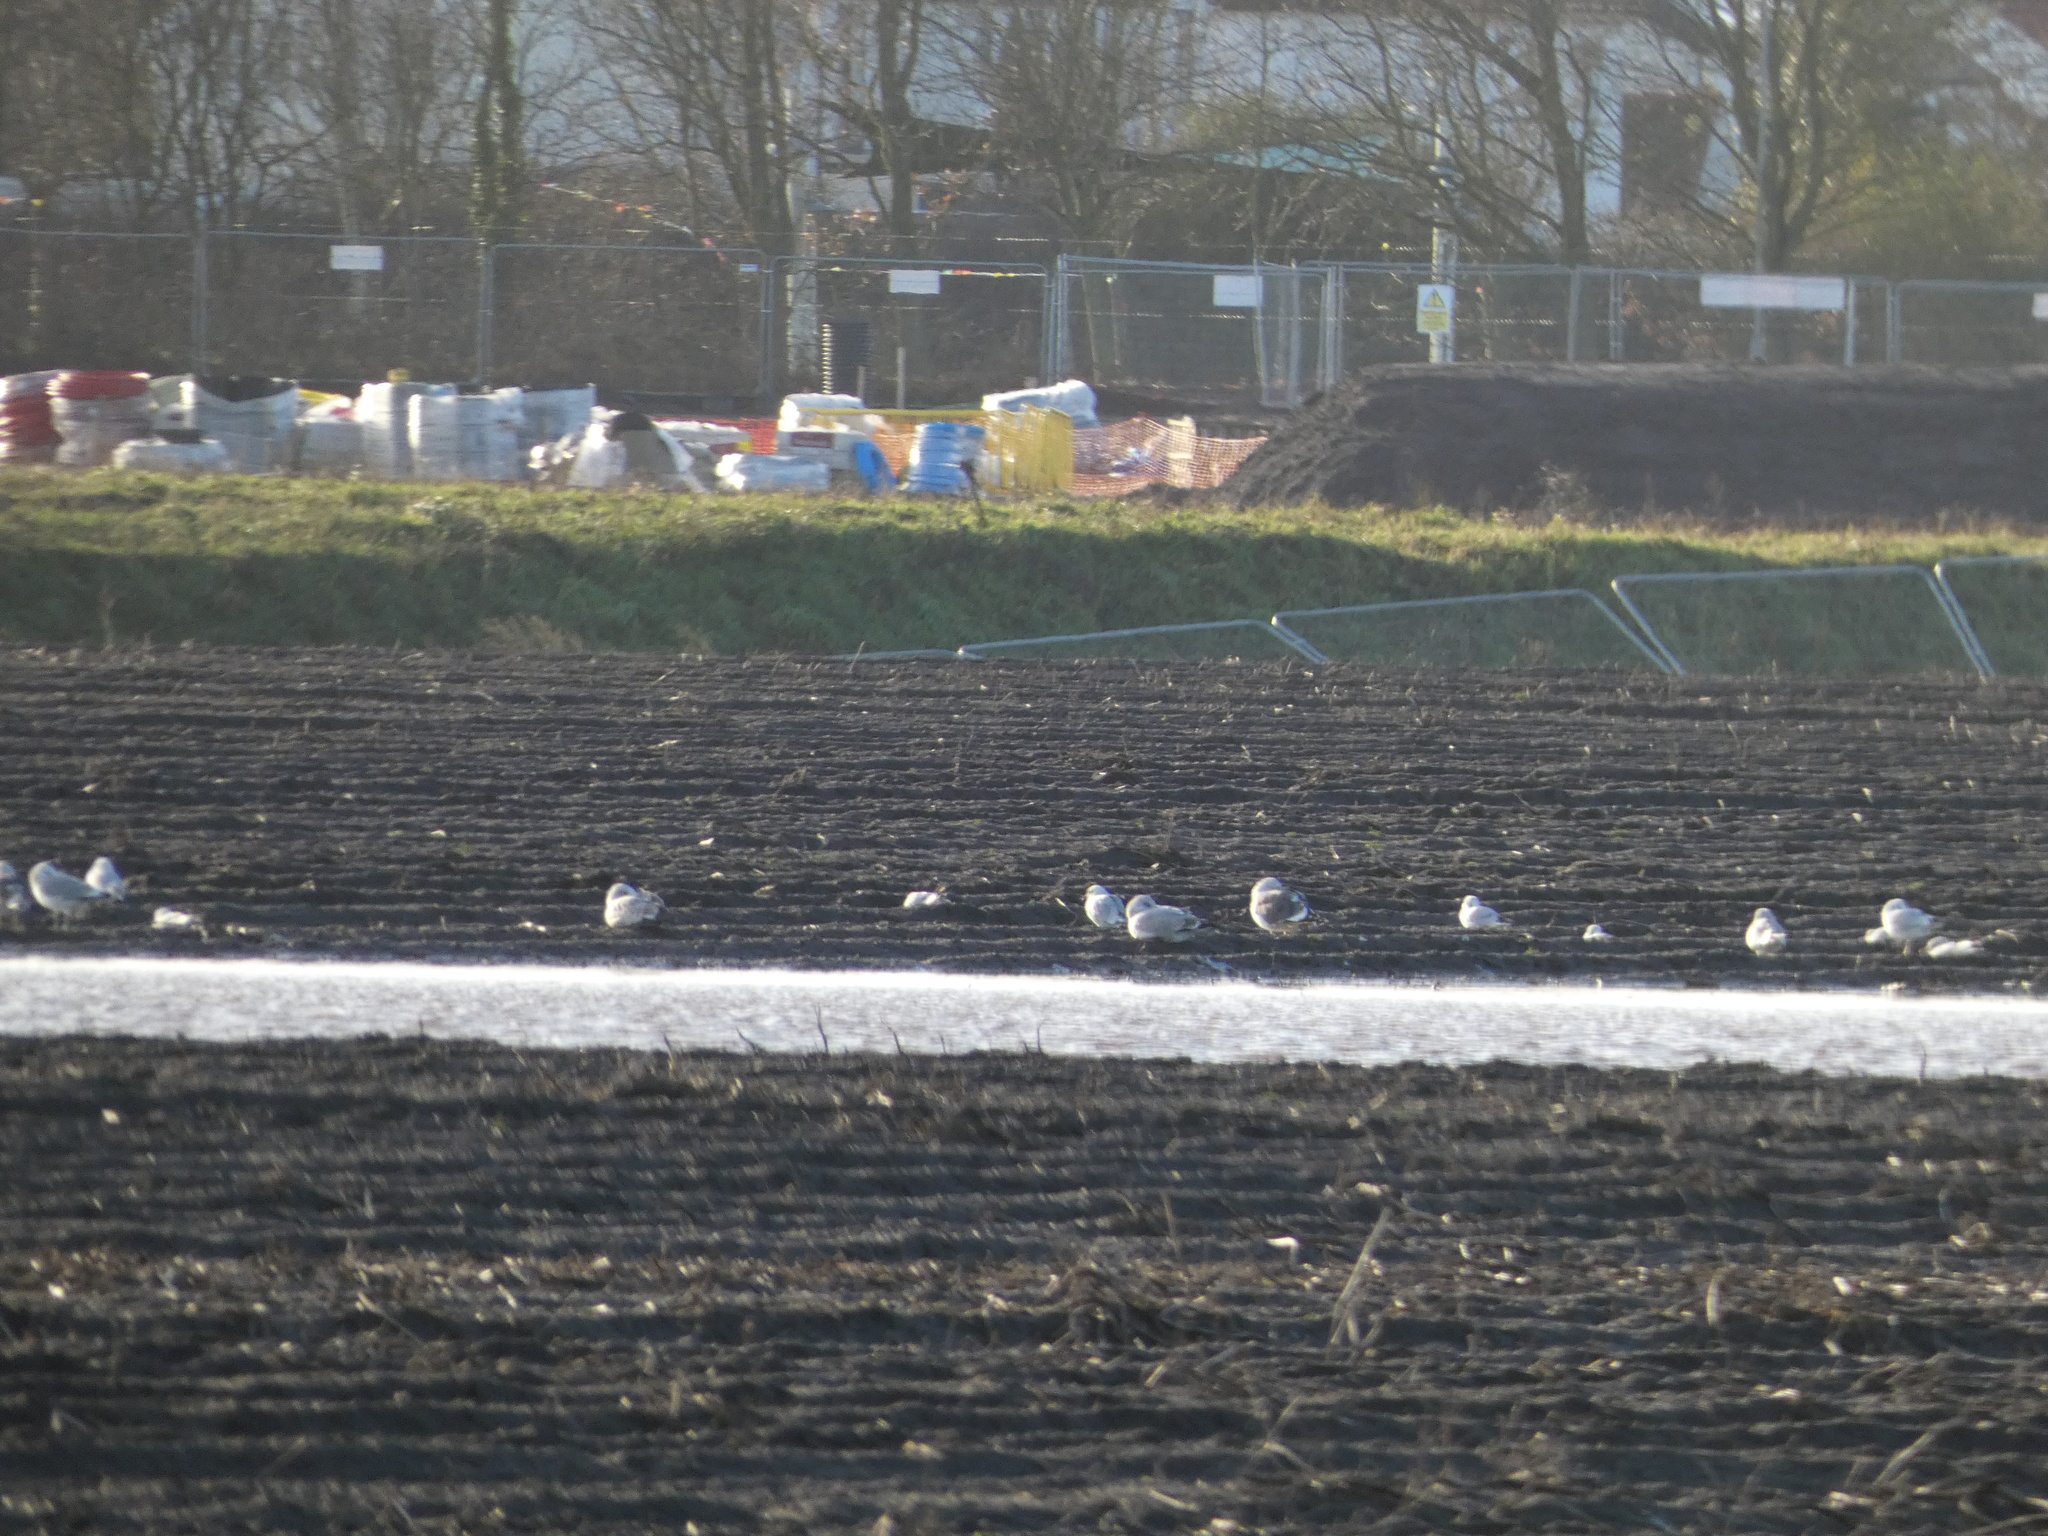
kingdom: Animalia
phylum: Chordata
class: Aves
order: Charadriiformes
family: Laridae
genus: Larus
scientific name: Larus fuscus
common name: Lesser black-backed gull
